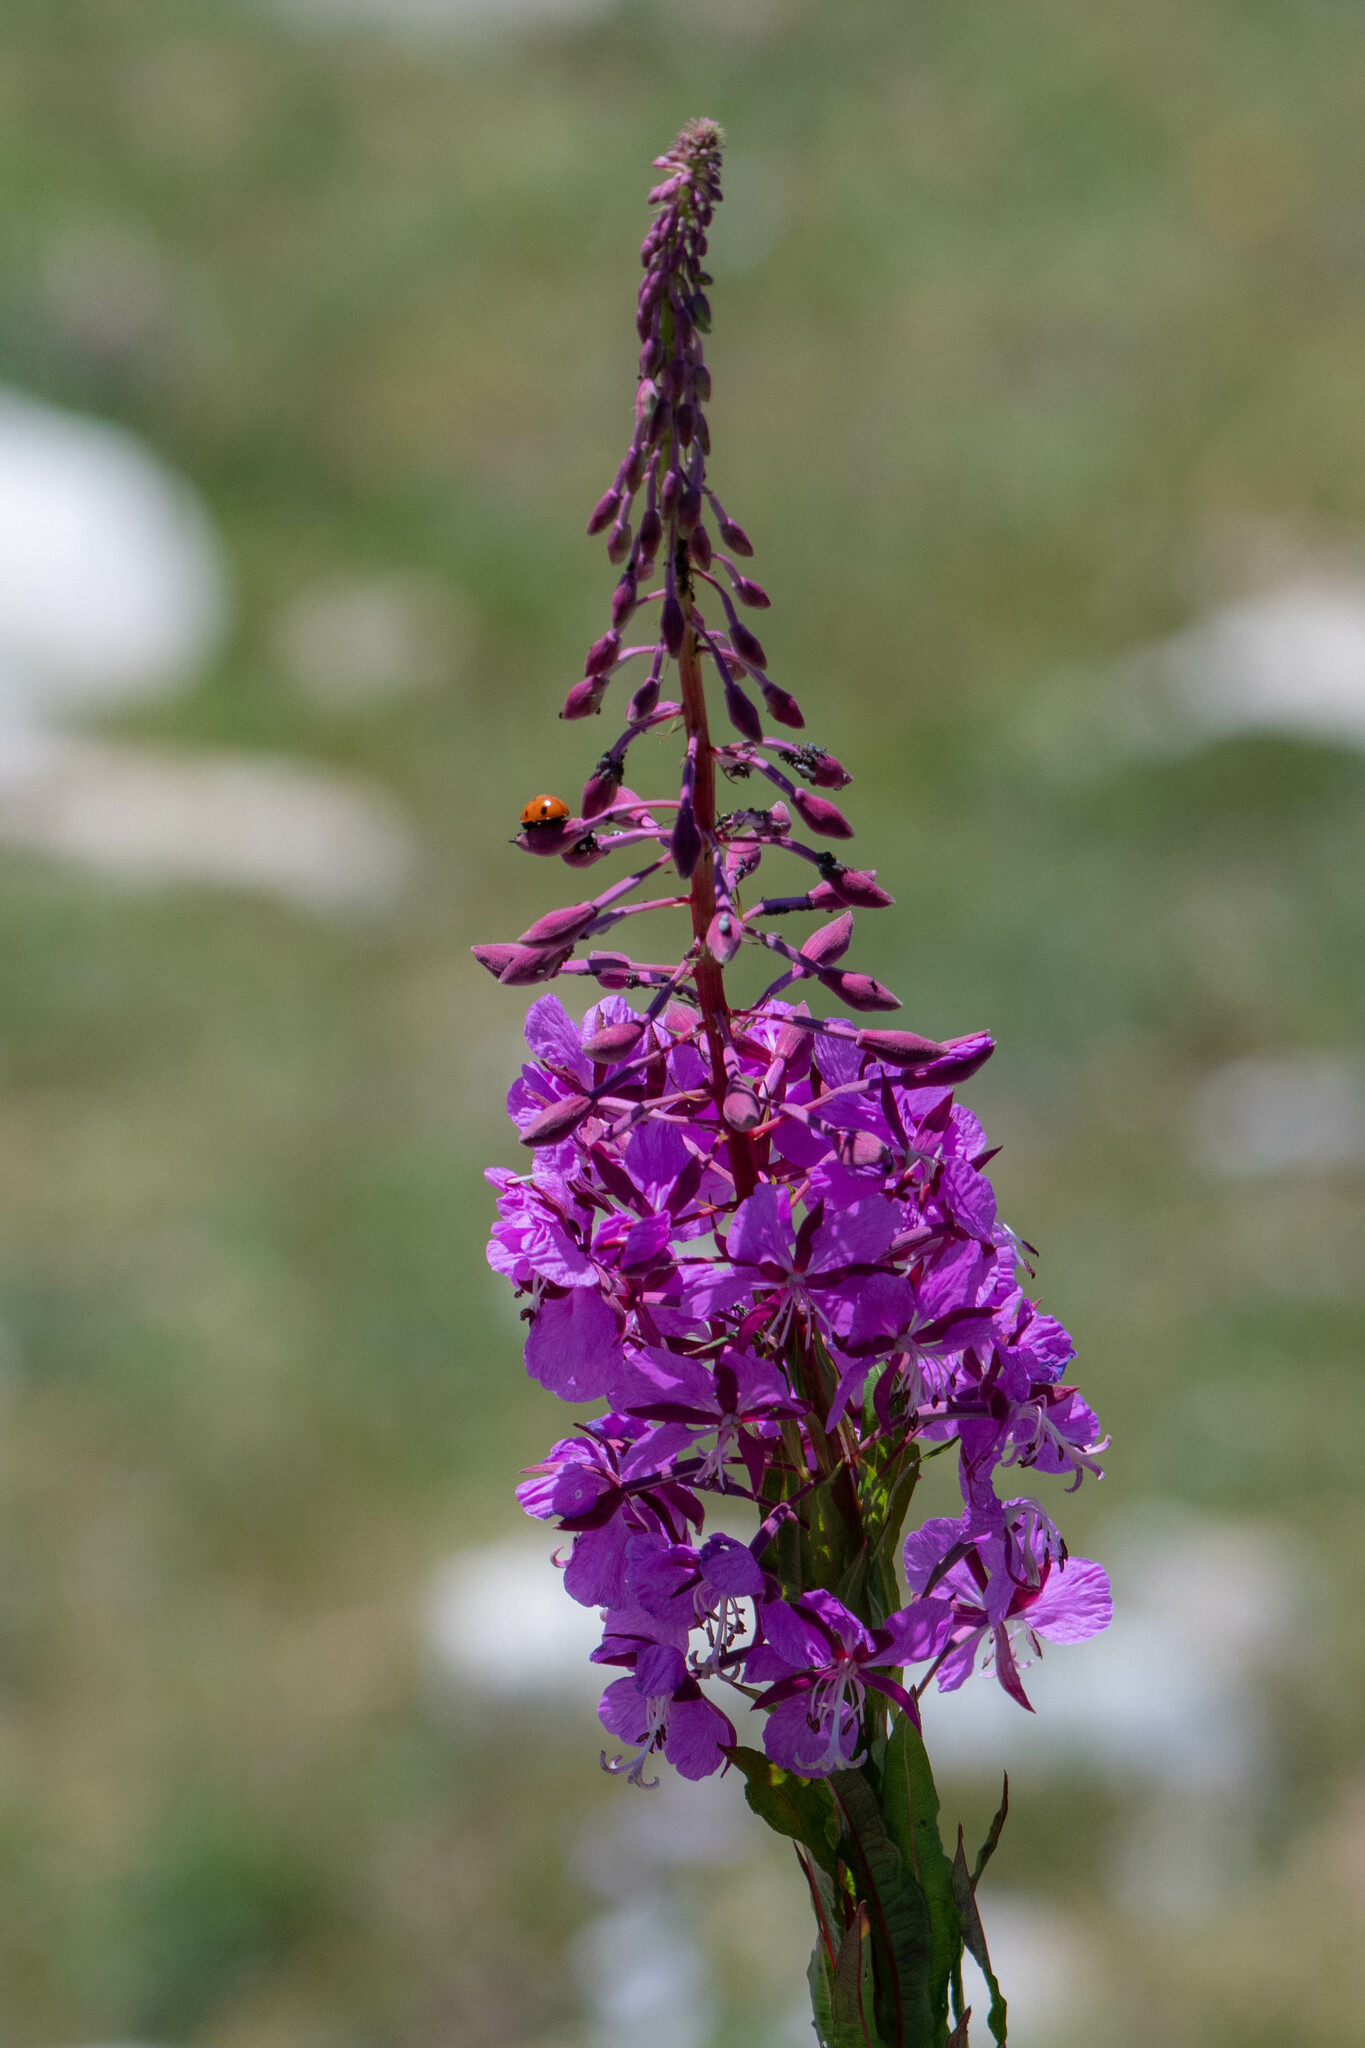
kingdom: Plantae
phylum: Tracheophyta
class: Magnoliopsida
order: Myrtales
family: Onagraceae
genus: Chamaenerion
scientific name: Chamaenerion angustifolium
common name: Fireweed
